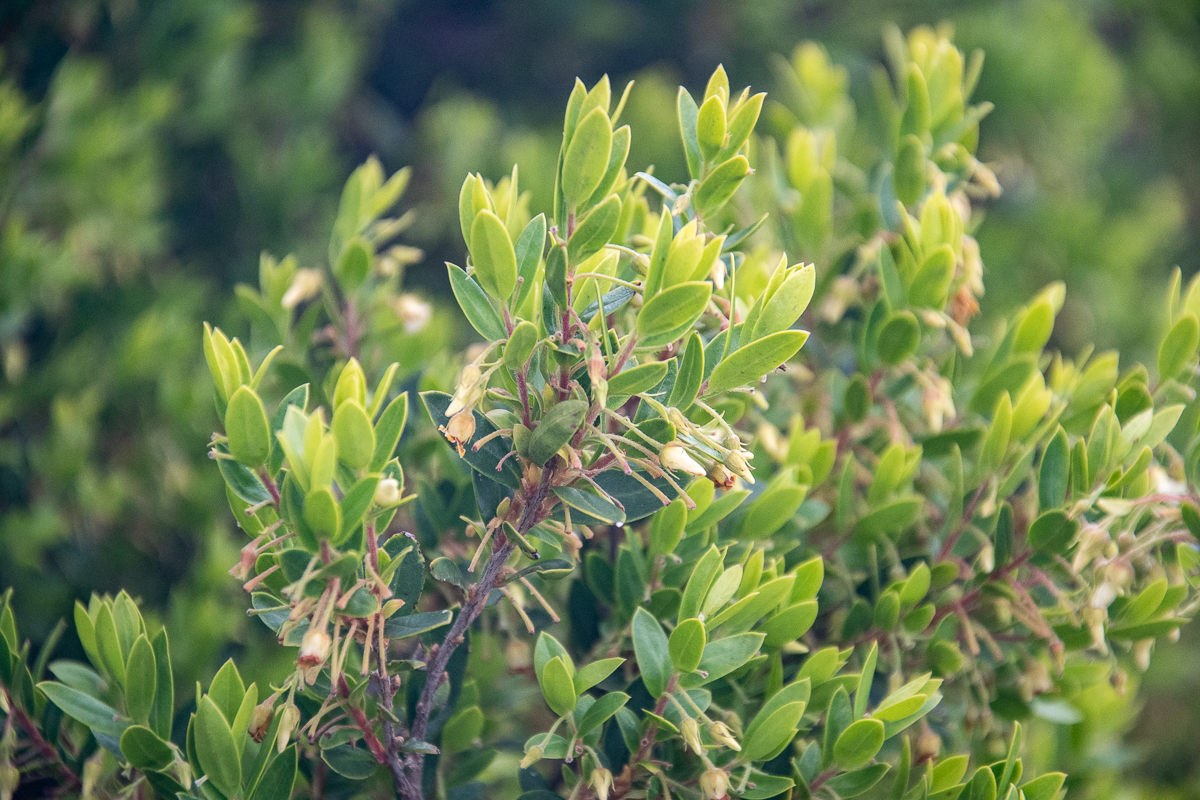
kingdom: Plantae
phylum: Tracheophyta
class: Magnoliopsida
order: Ericales
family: Ebenaceae
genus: Diospyros
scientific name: Diospyros glabra
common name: Fynbos star apple
